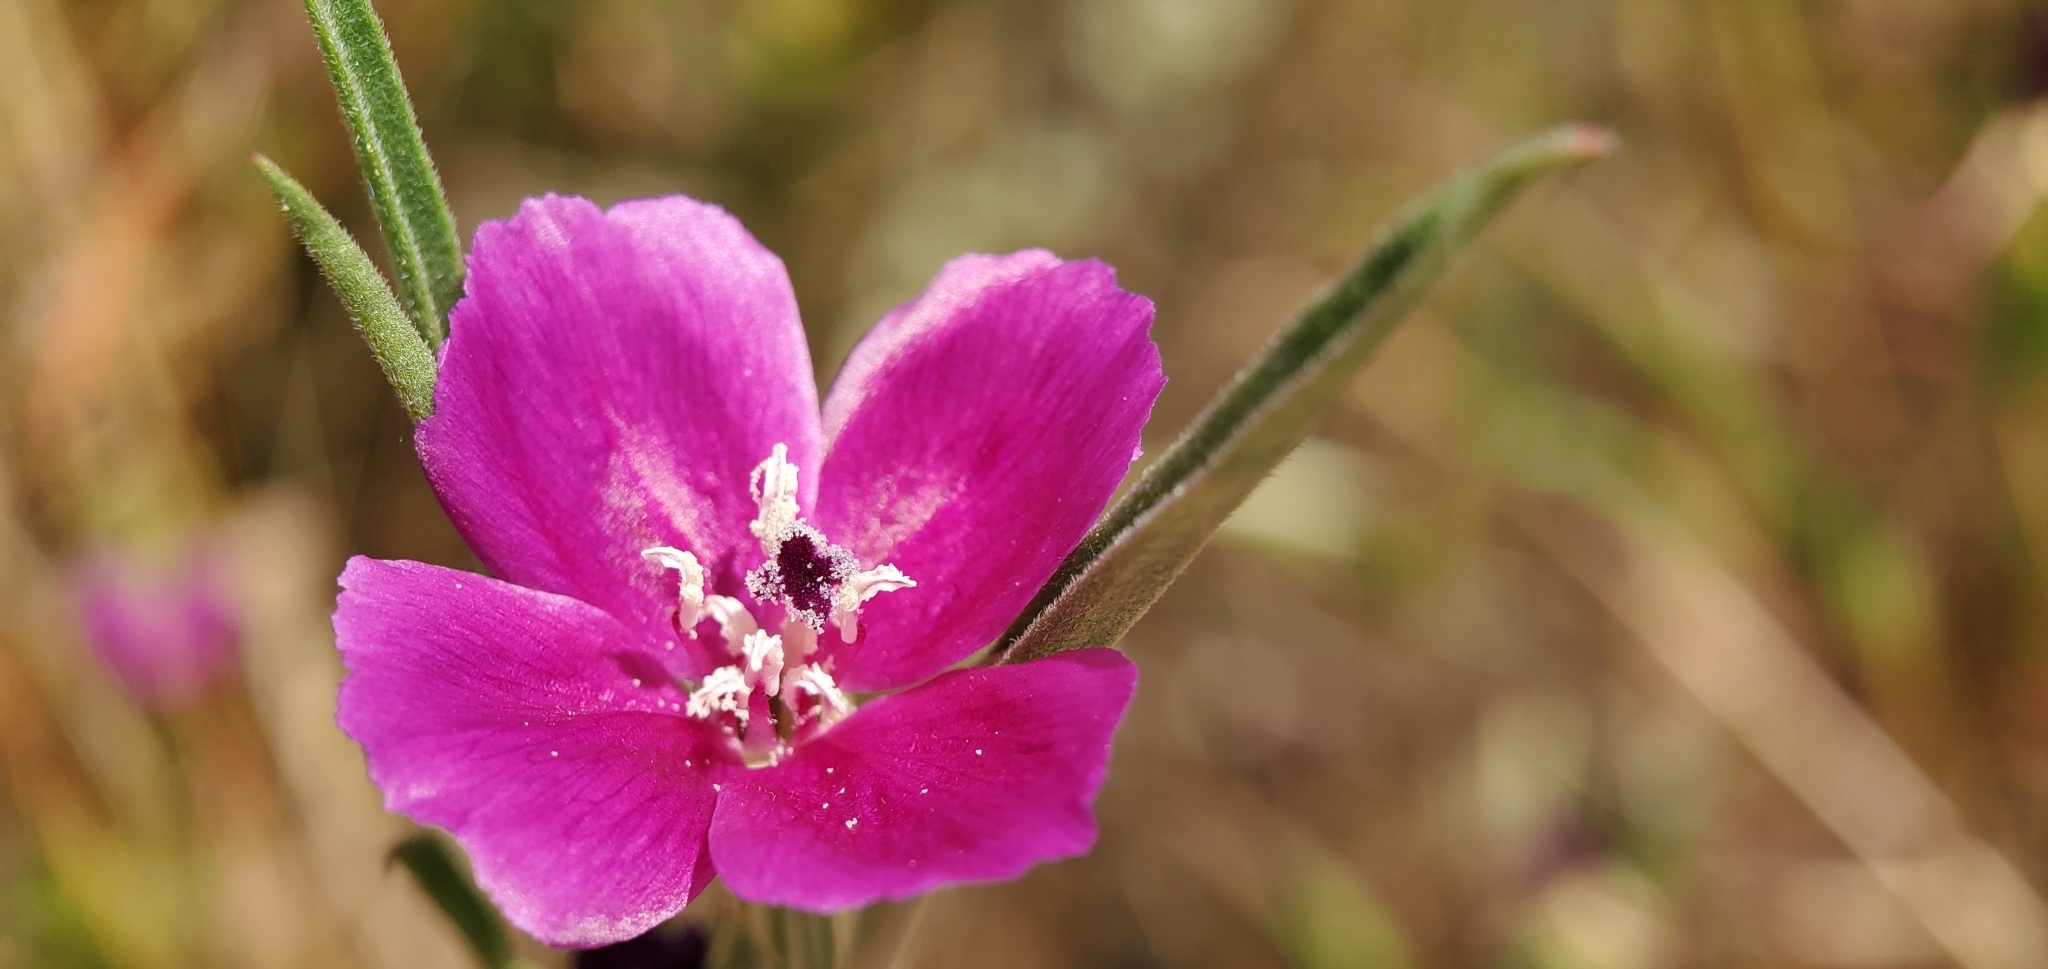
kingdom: Plantae
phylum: Tracheophyta
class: Magnoliopsida
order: Myrtales
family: Onagraceae
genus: Clarkia
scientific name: Clarkia purpurea
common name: Purple clarkia
